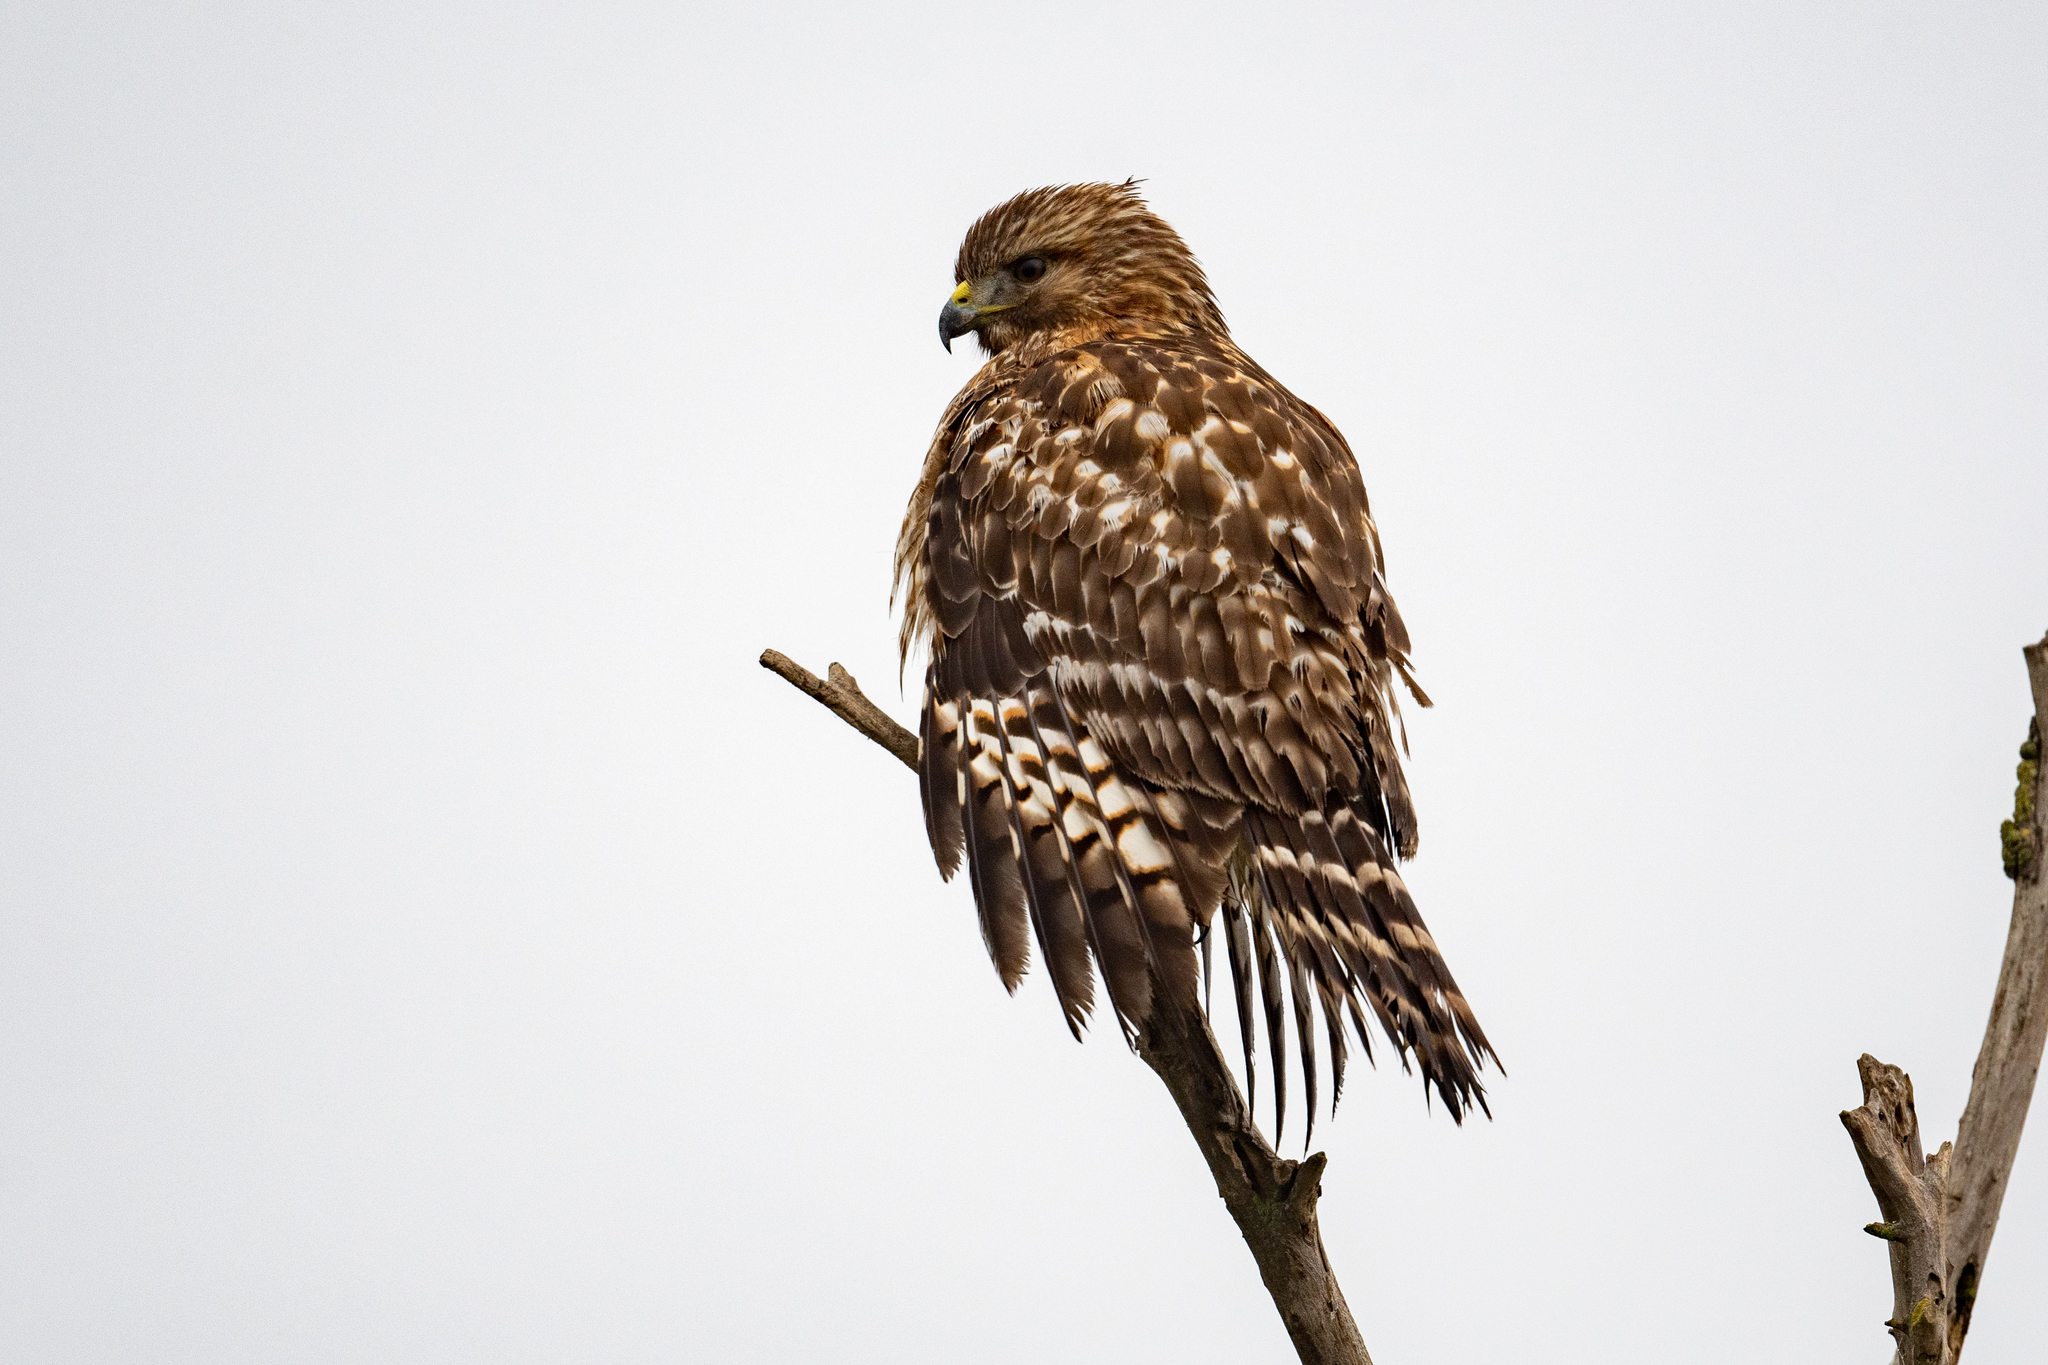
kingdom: Animalia
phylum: Chordata
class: Aves
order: Accipitriformes
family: Accipitridae
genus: Buteo
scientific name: Buteo lineatus
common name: Red-shouldered hawk
